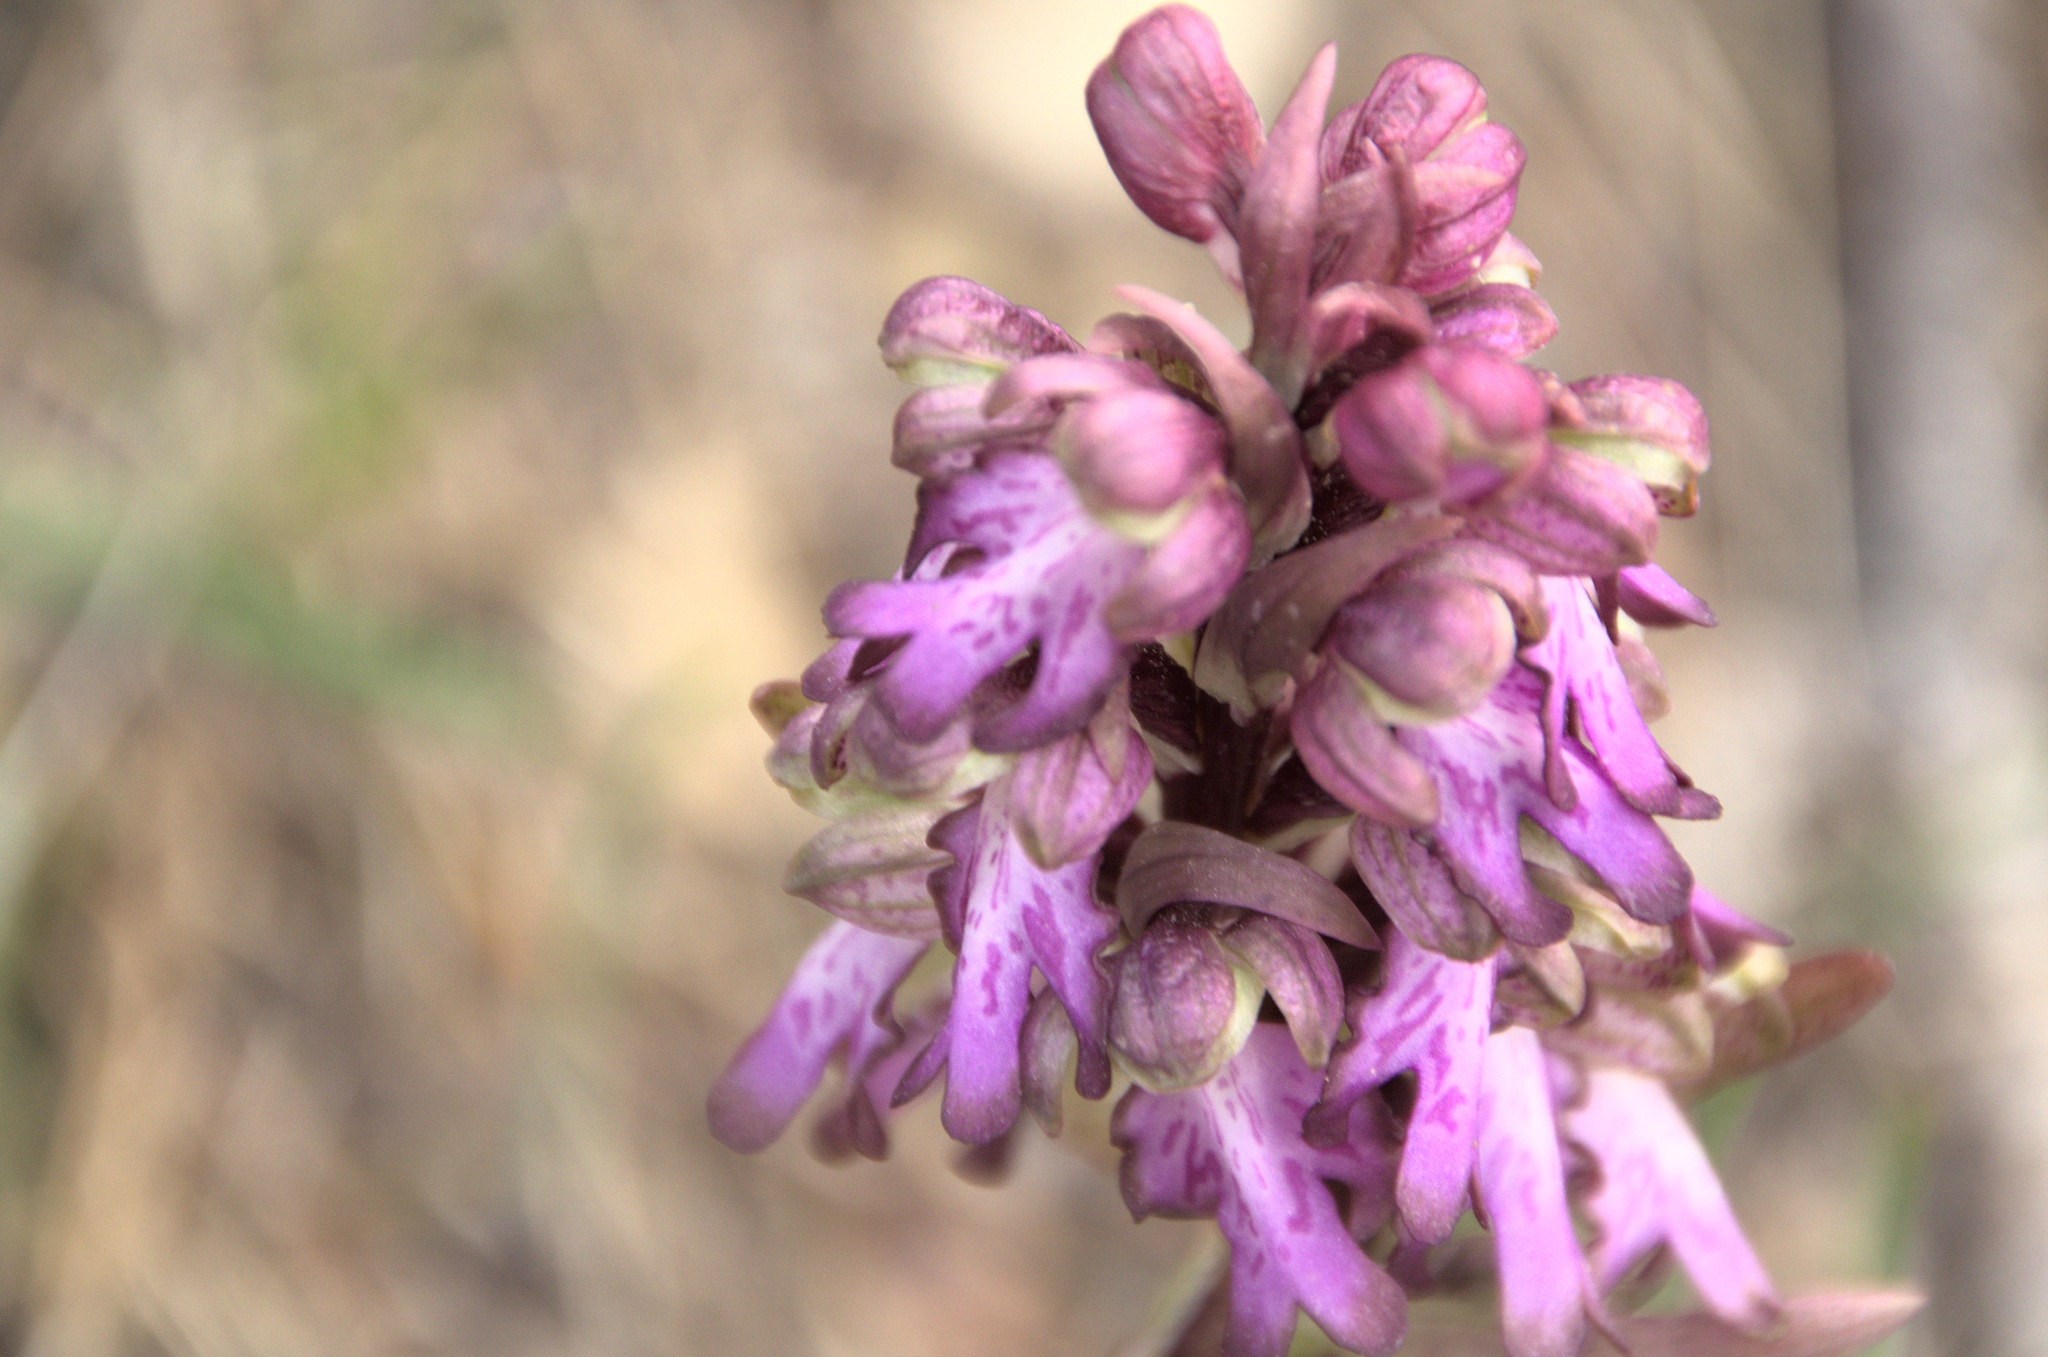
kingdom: Plantae
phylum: Tracheophyta
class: Liliopsida
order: Asparagales
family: Orchidaceae
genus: Himantoglossum
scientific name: Himantoglossum robertianum
